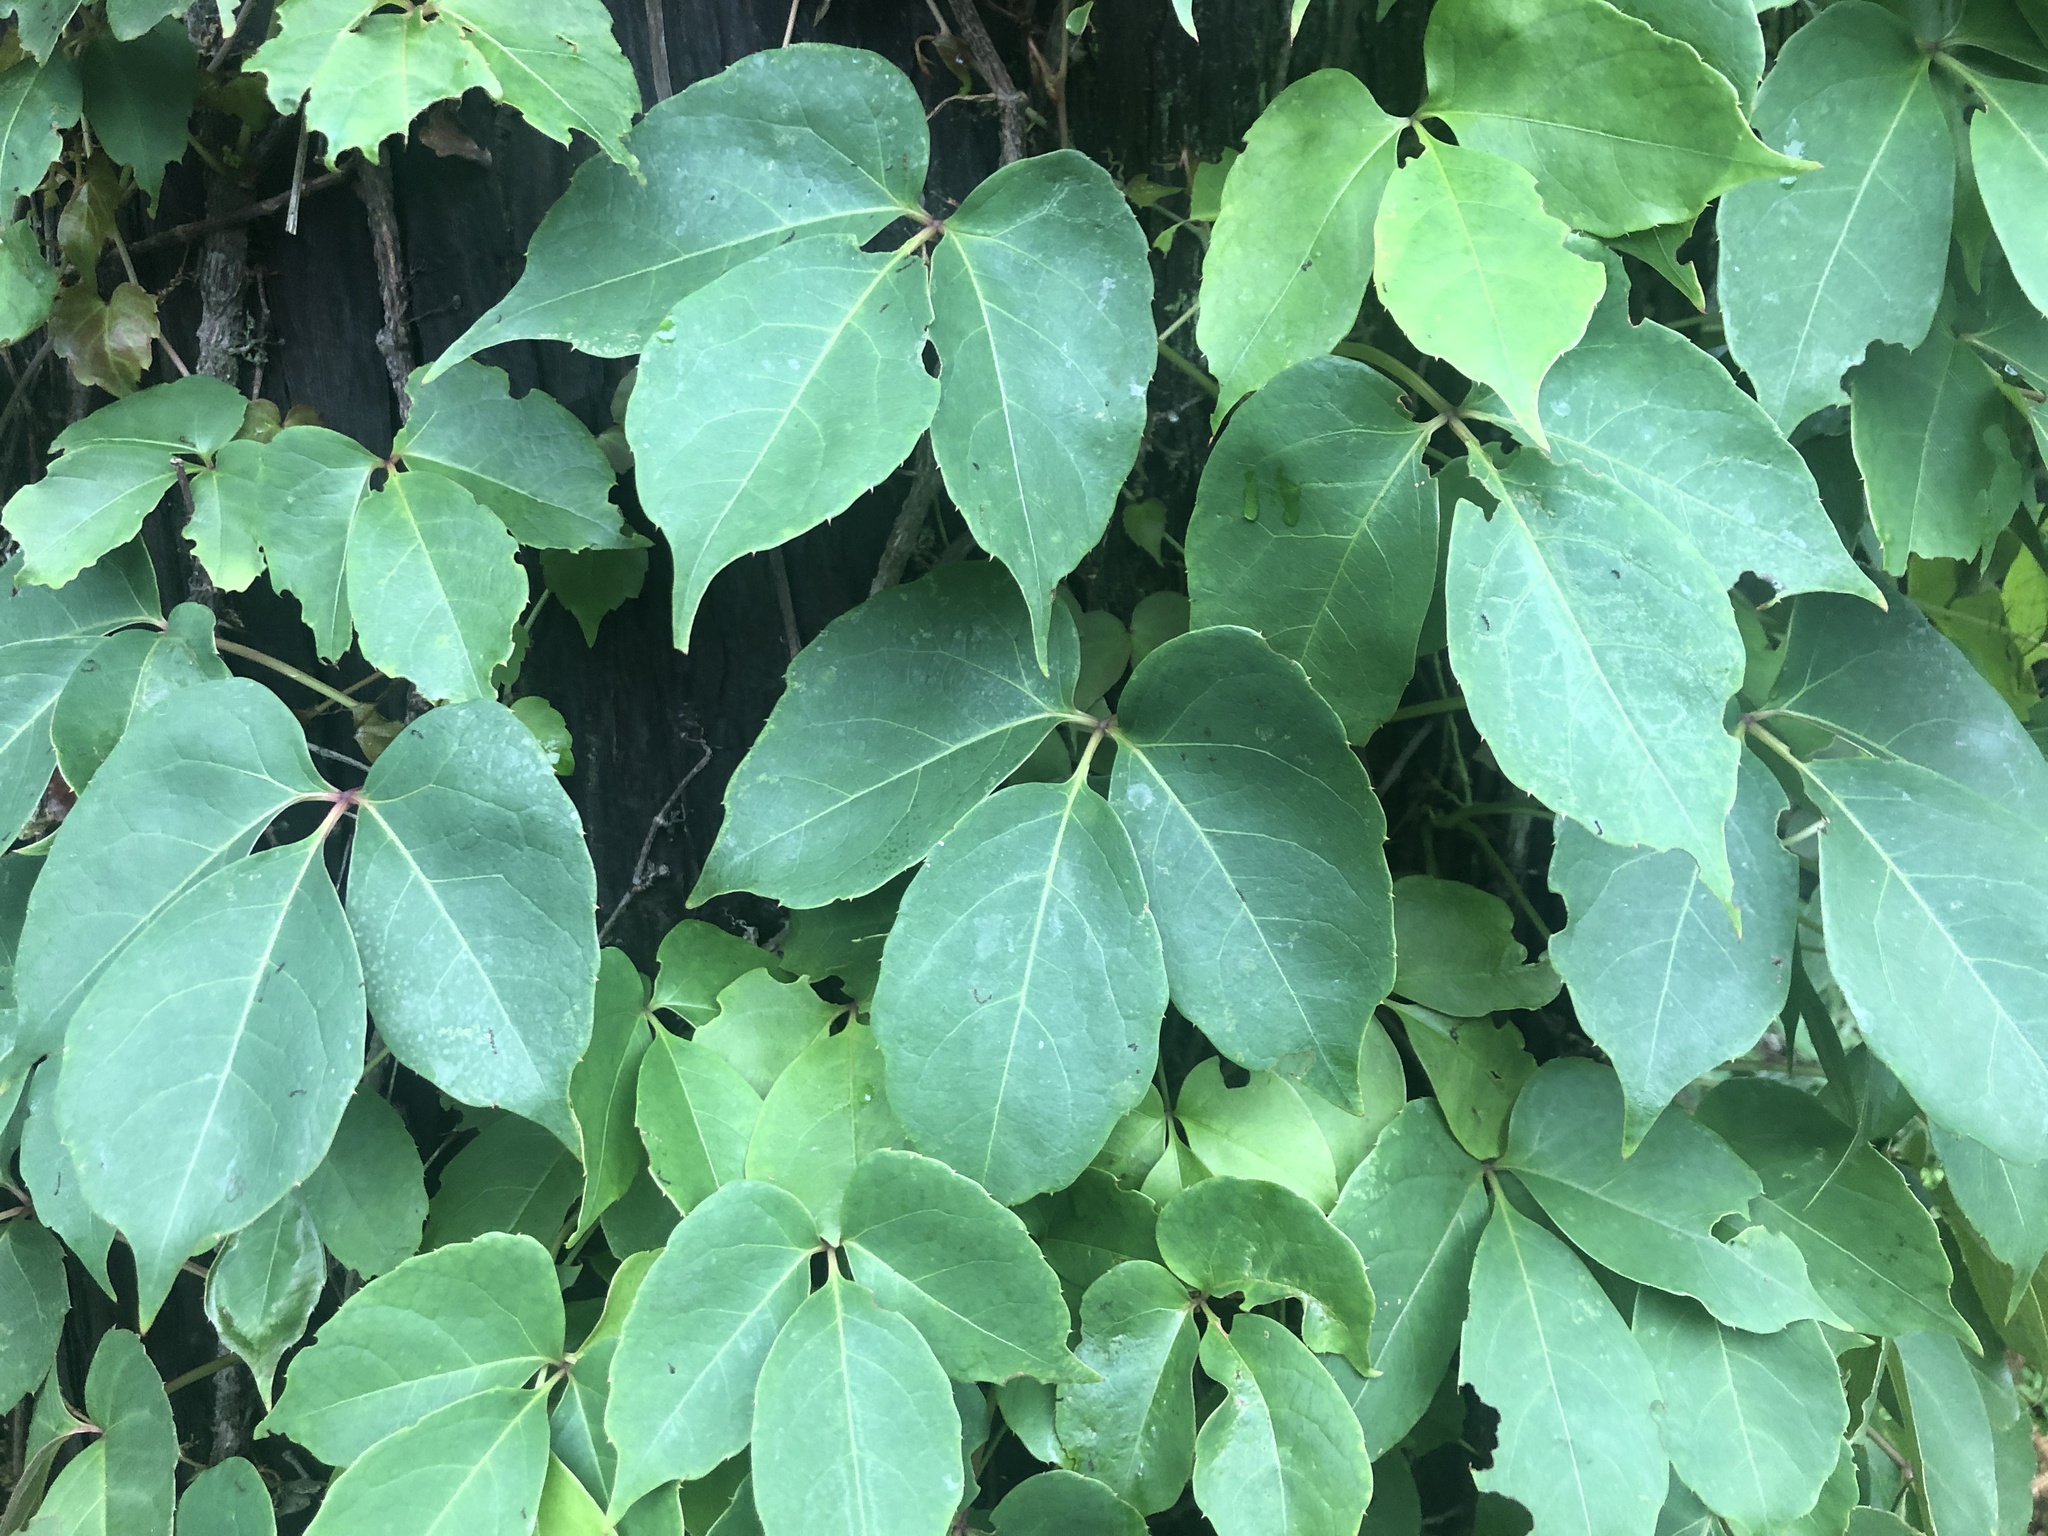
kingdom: Plantae
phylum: Tracheophyta
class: Magnoliopsida
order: Vitales
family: Vitaceae
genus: Parthenocissus
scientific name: Parthenocissus tricuspidata
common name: Boston ivy
